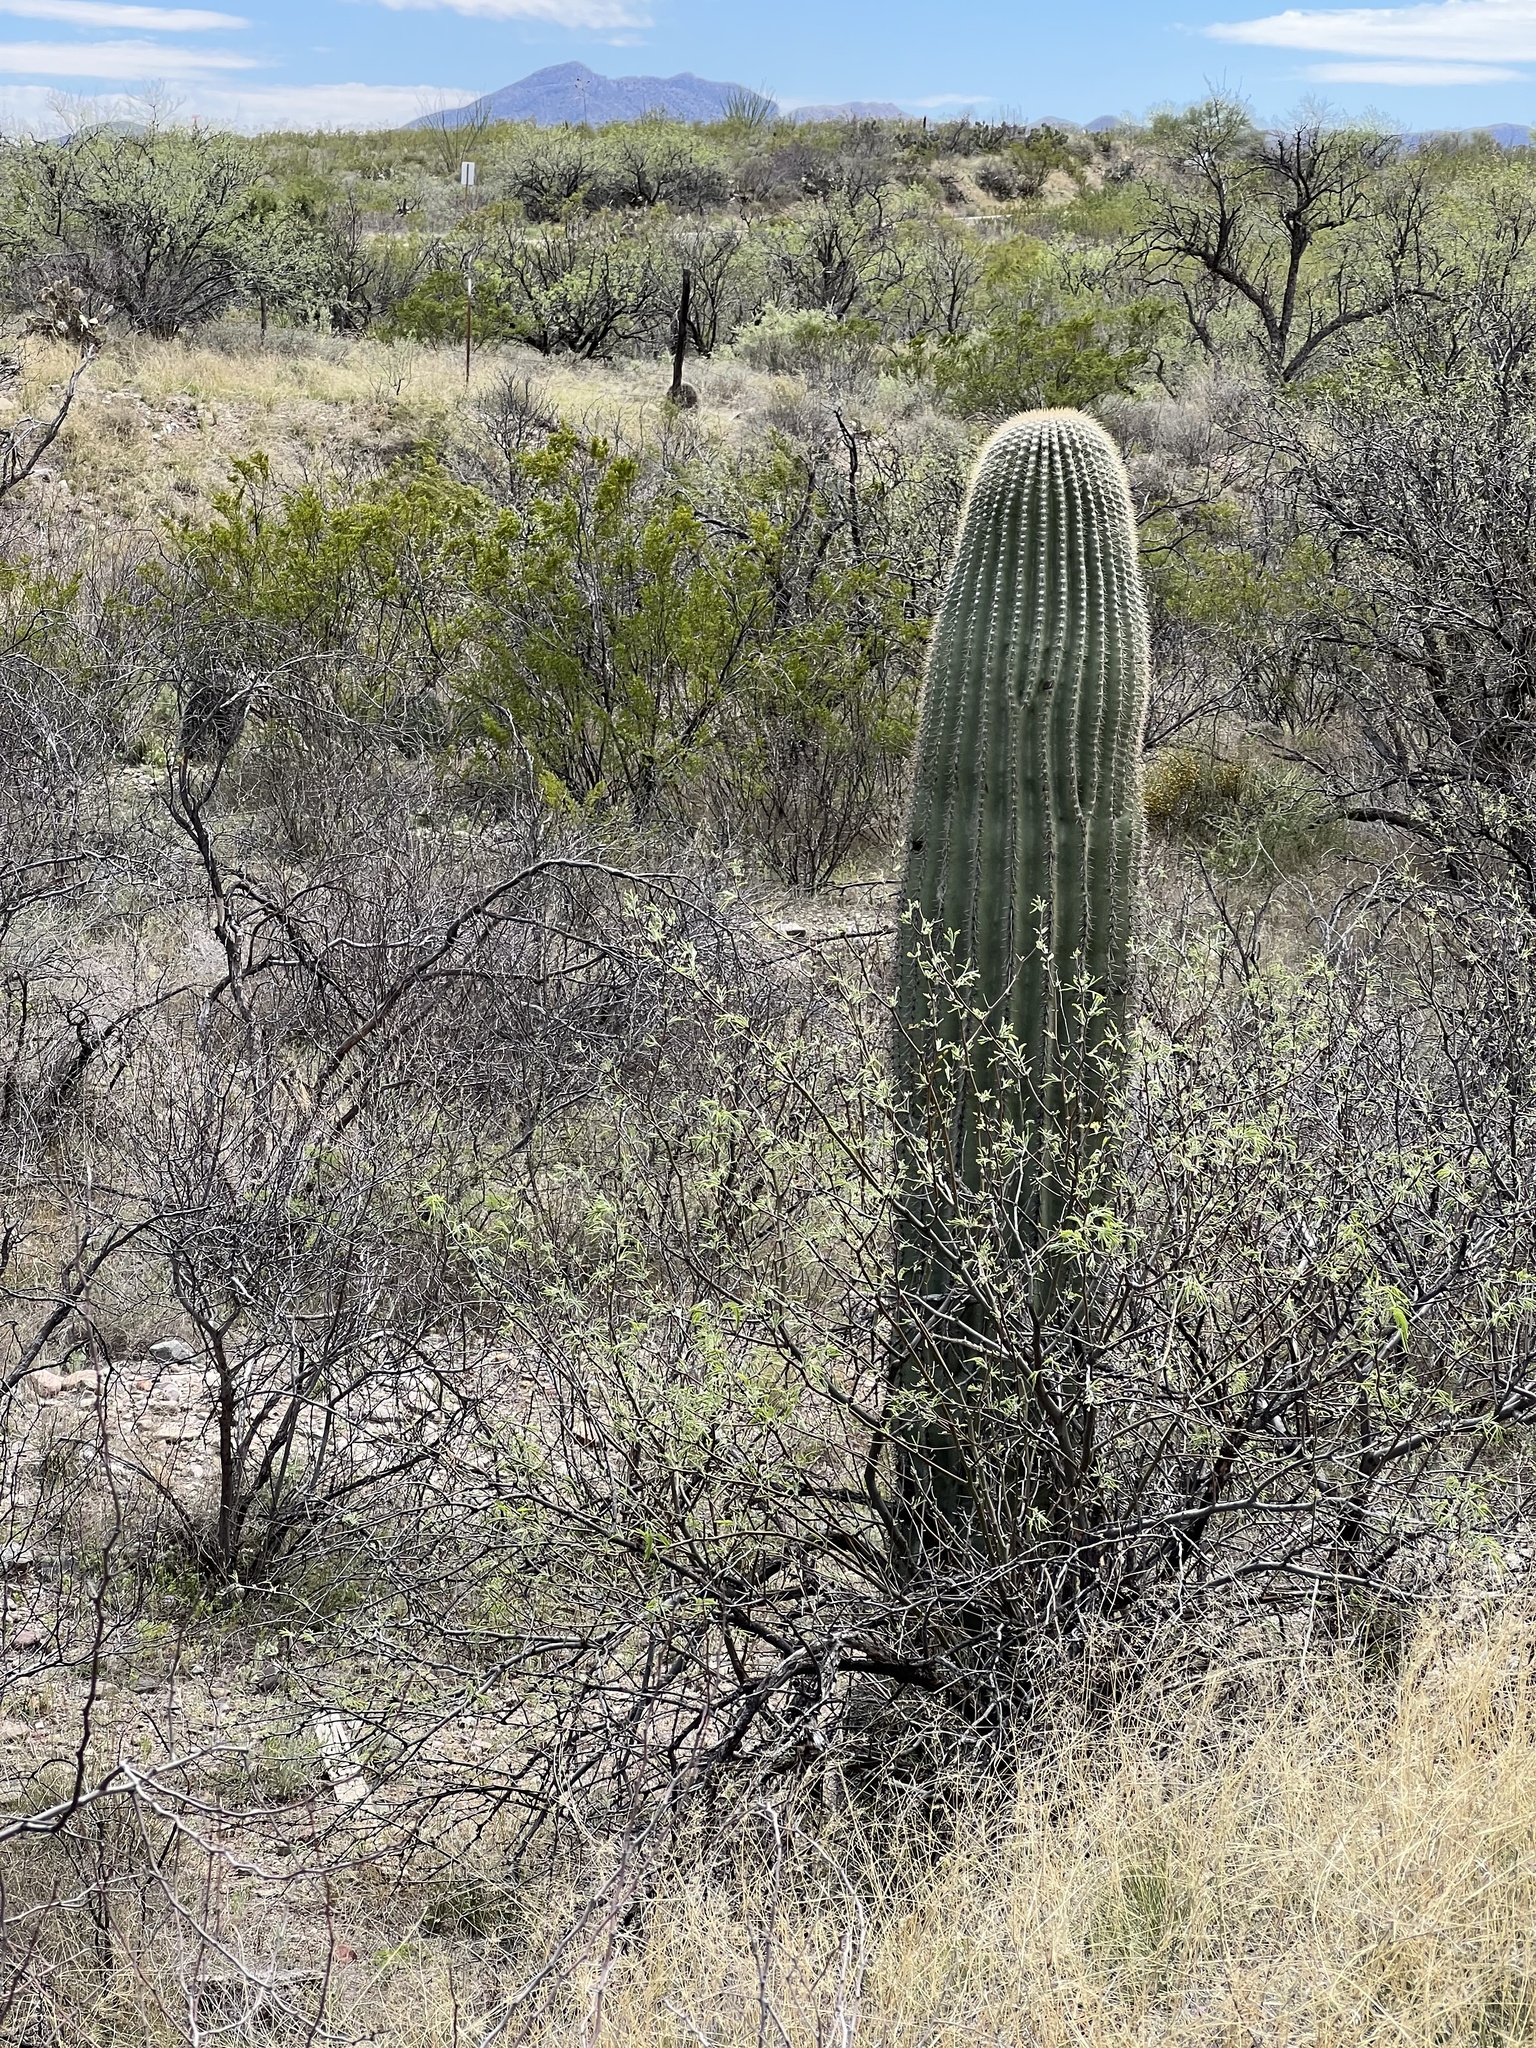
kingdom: Plantae
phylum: Tracheophyta
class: Magnoliopsida
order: Caryophyllales
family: Cactaceae
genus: Carnegiea
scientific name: Carnegiea gigantea
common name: Saguaro
